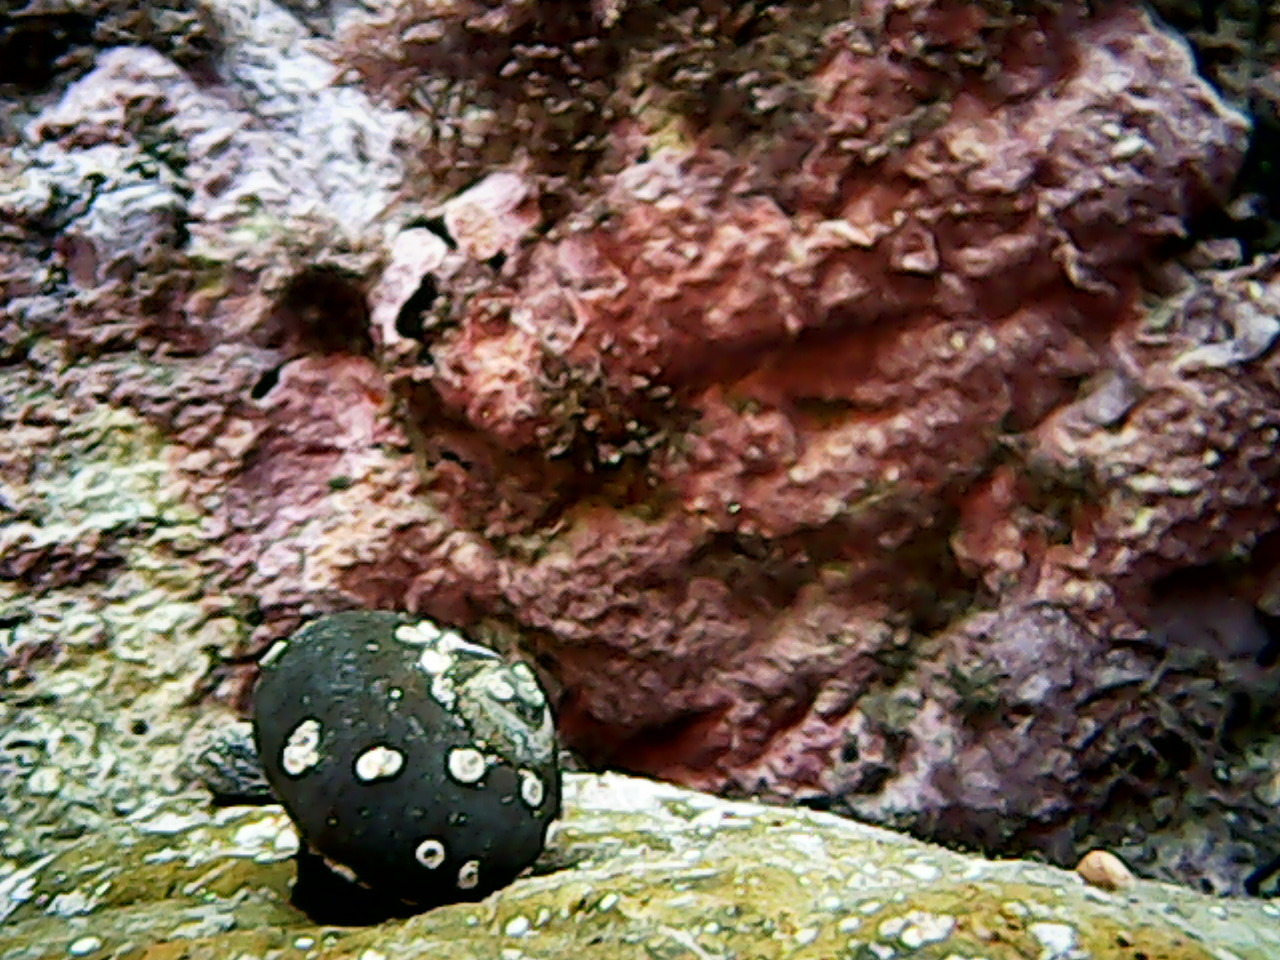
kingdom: Animalia
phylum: Mollusca
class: Gastropoda
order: Trochida
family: Turbinidae
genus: Lunella
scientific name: Lunella smaragda
